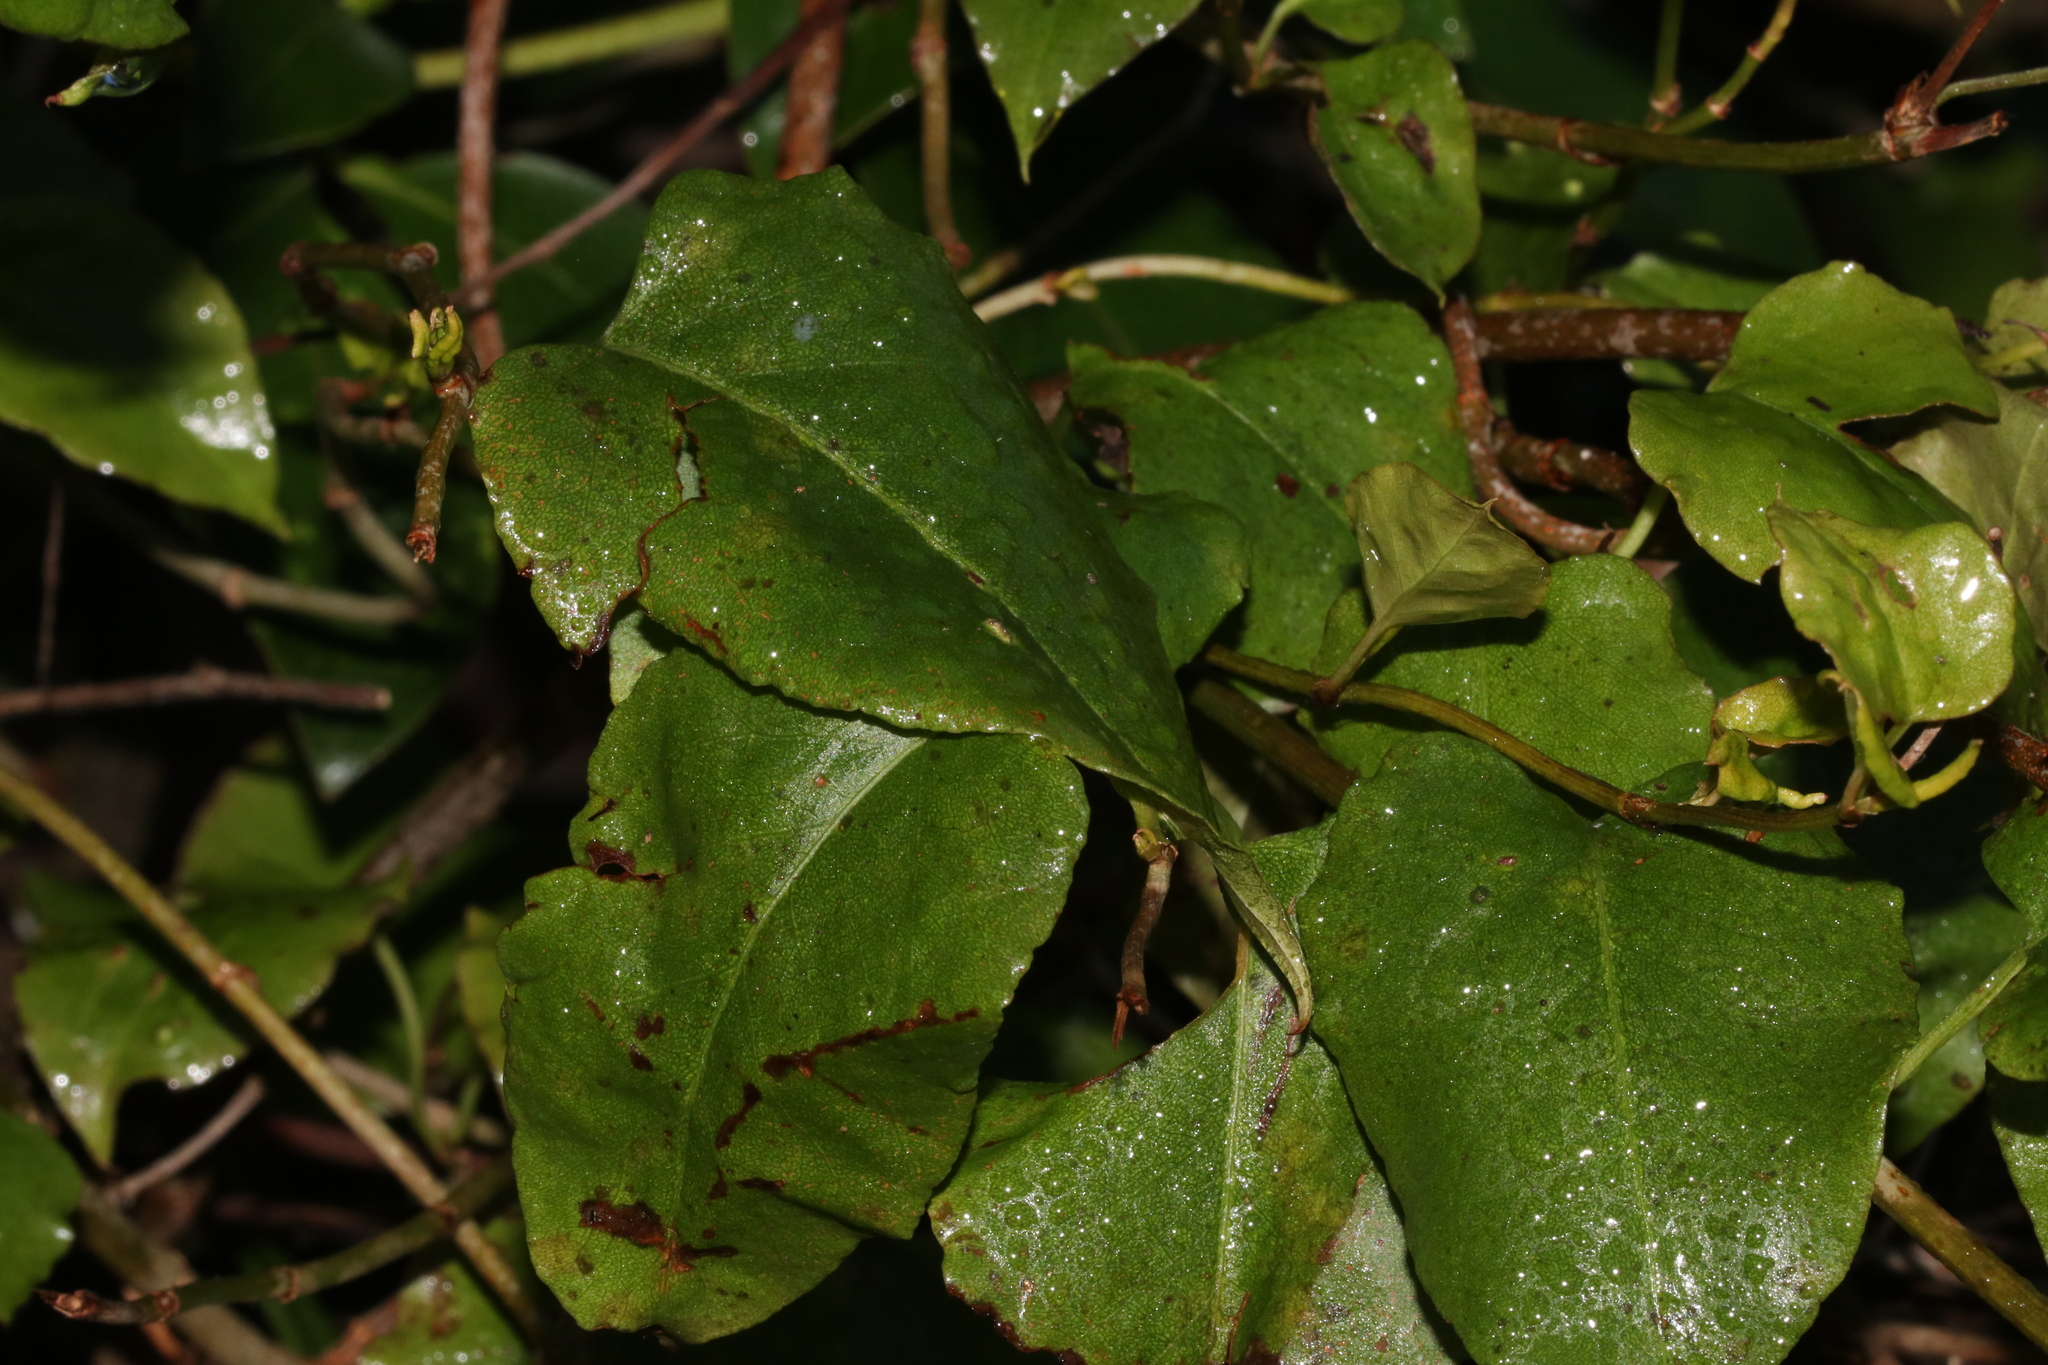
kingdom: Plantae
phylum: Tracheophyta
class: Magnoliopsida
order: Caryophyllales
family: Polygonaceae
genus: Muehlenbeckia
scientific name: Muehlenbeckia australis
